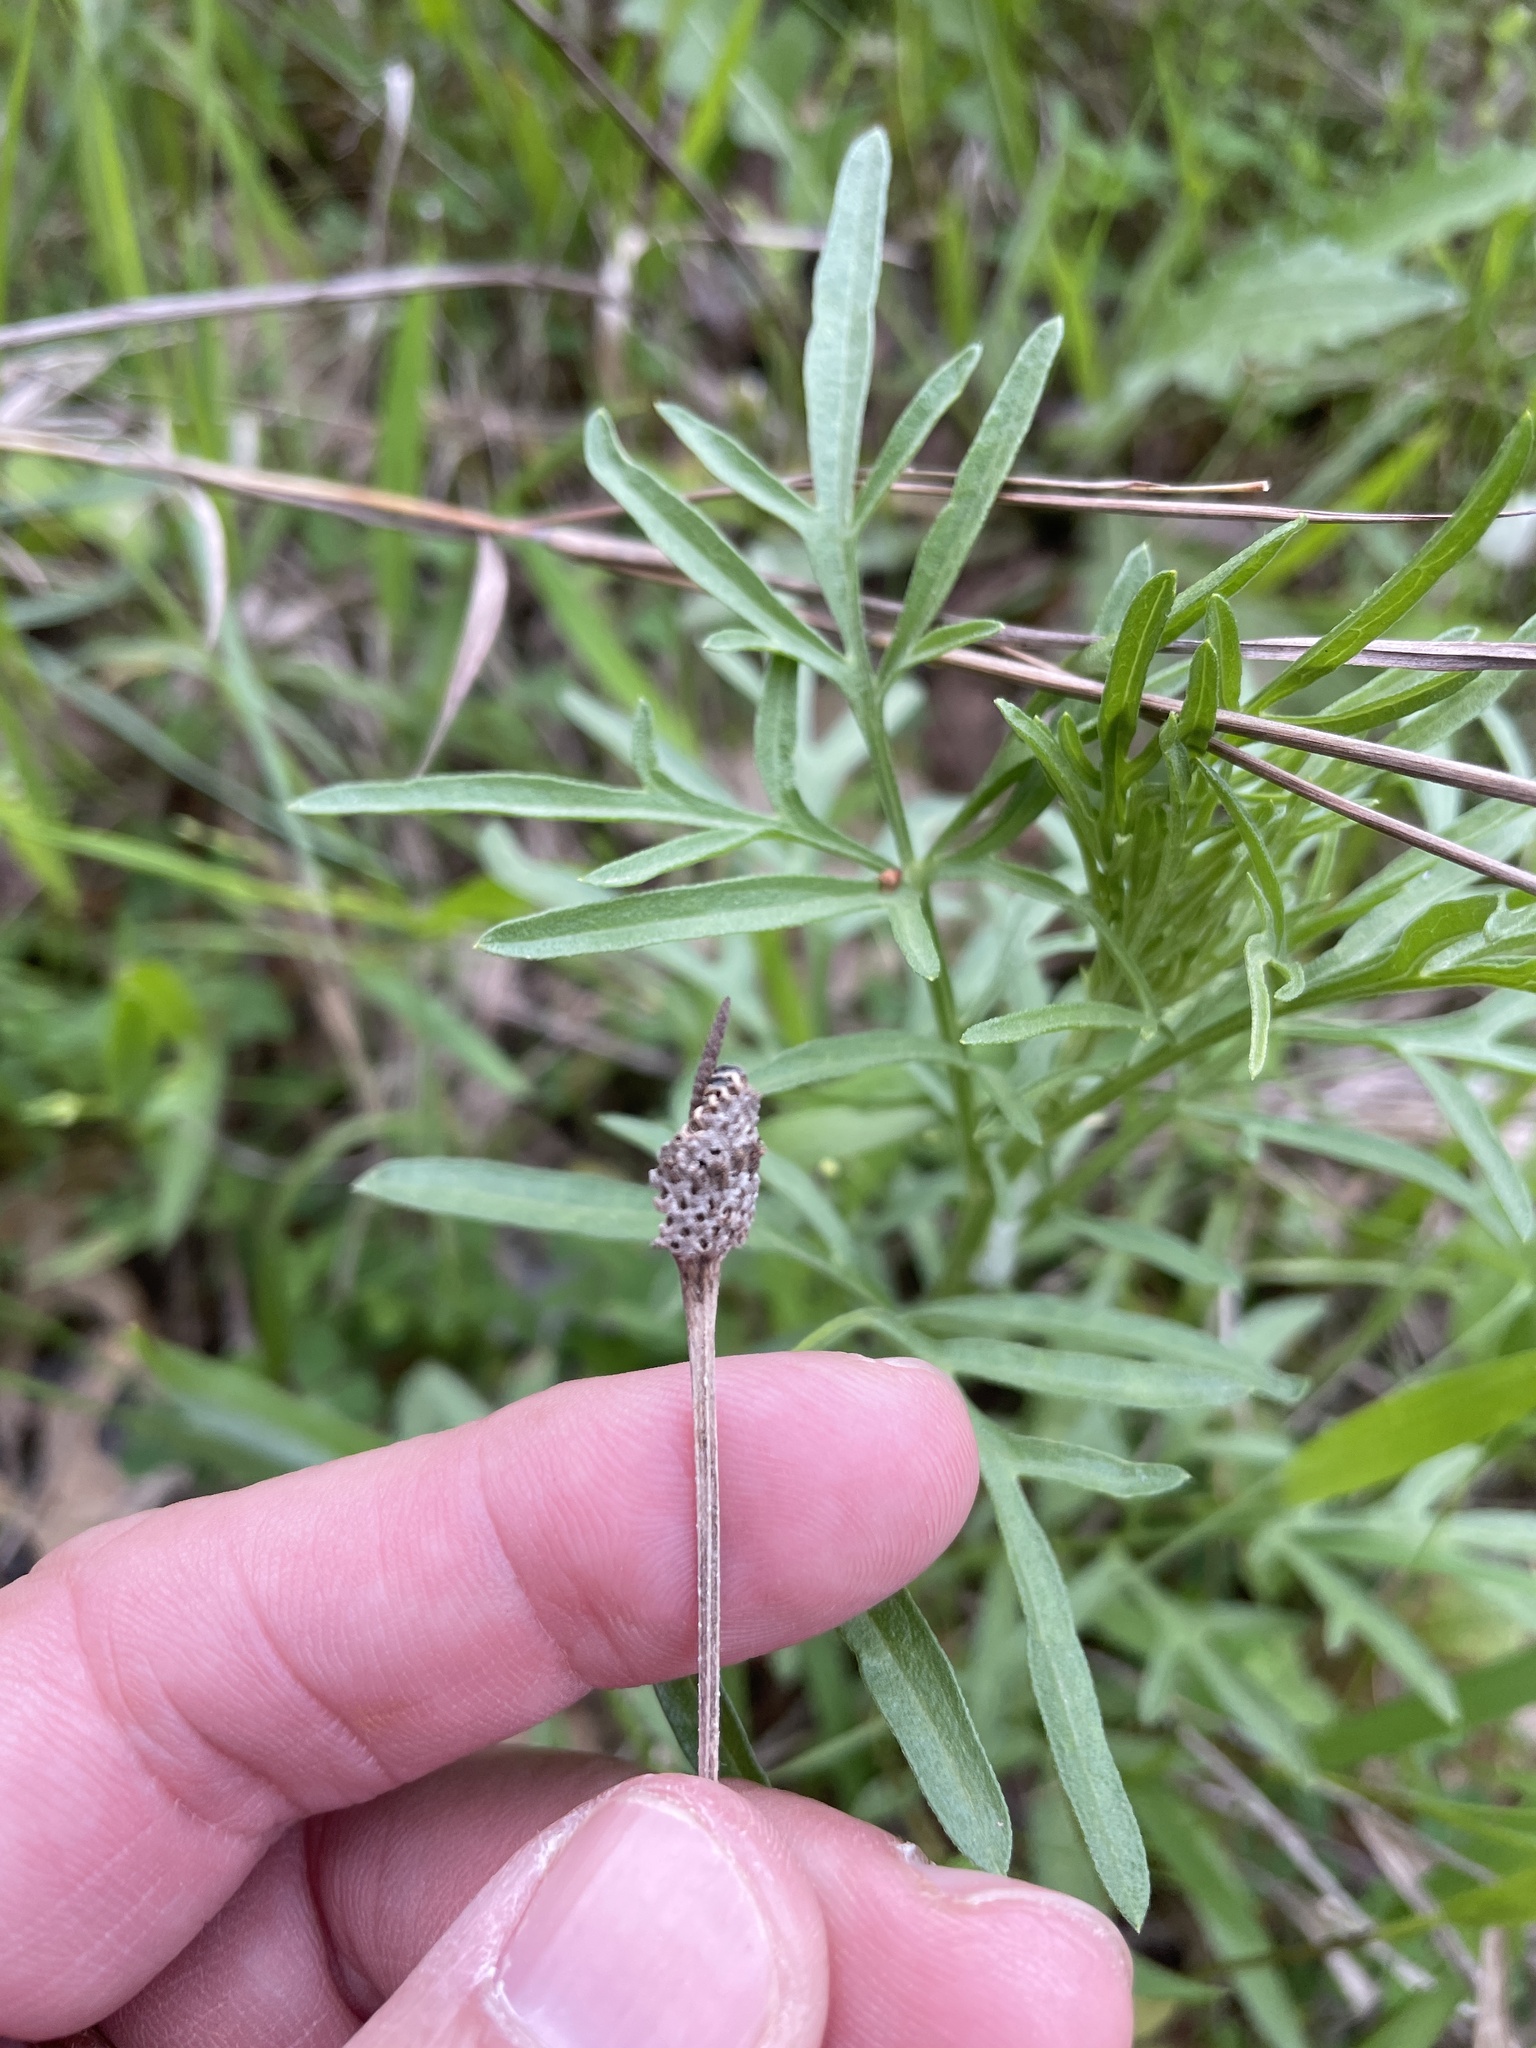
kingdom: Plantae
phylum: Tracheophyta
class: Magnoliopsida
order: Asterales
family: Asteraceae
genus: Ratibida
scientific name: Ratibida columnifera
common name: Prairie coneflower
